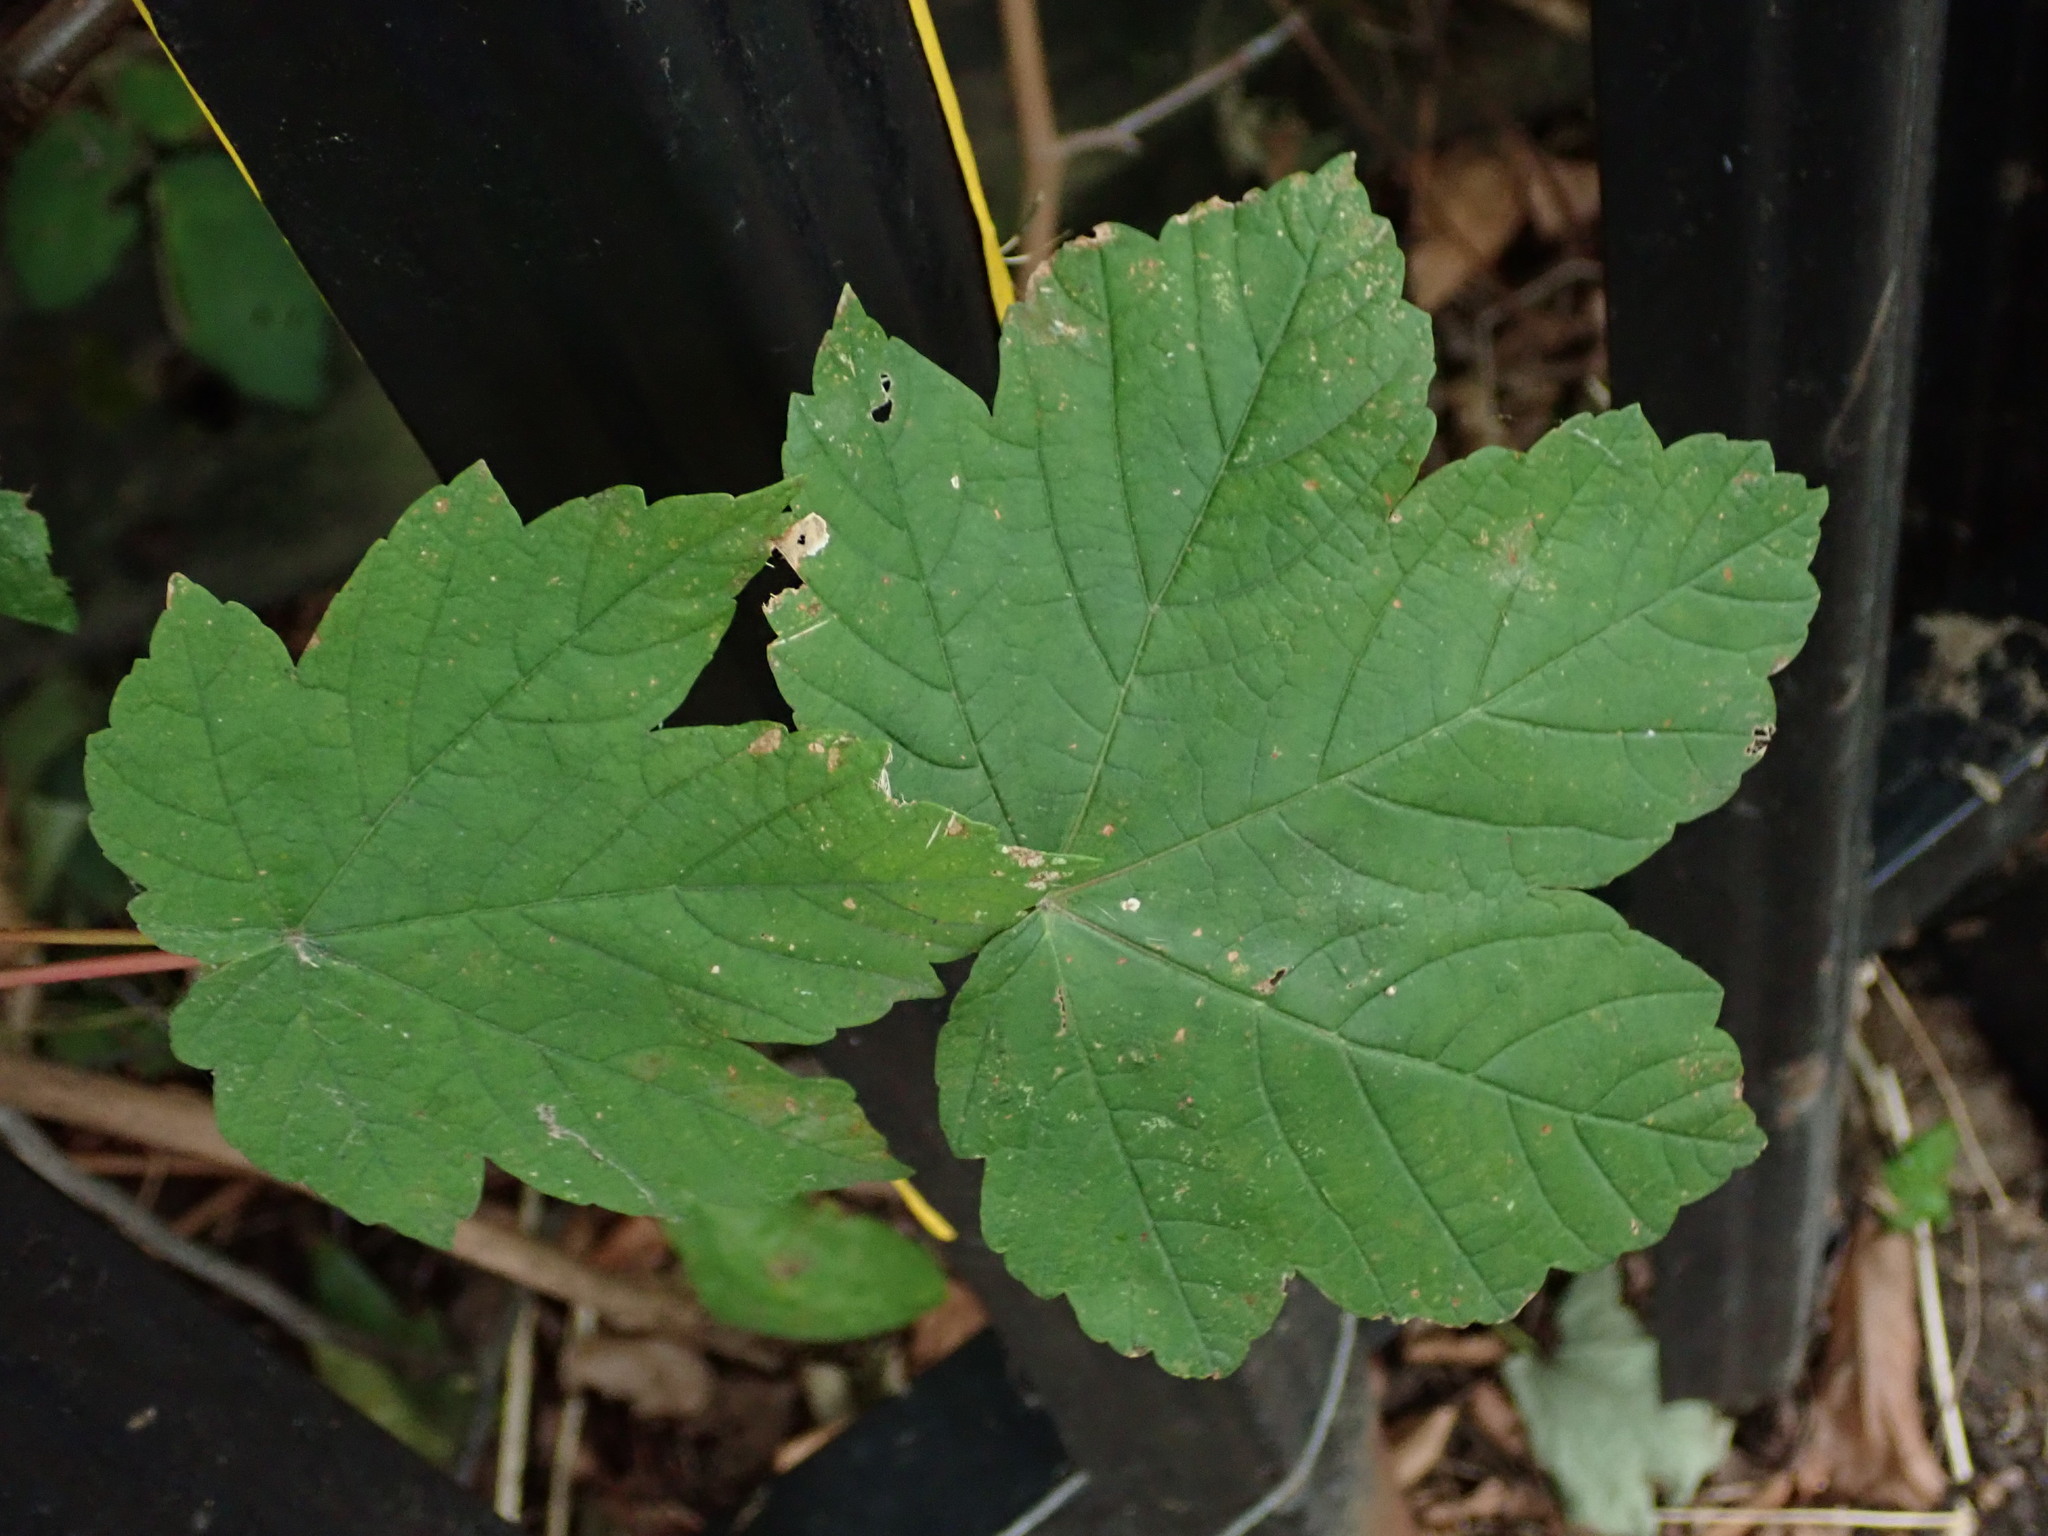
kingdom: Plantae
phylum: Tracheophyta
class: Magnoliopsida
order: Sapindales
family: Sapindaceae
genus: Acer
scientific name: Acer pseudoplatanus
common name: Sycamore
